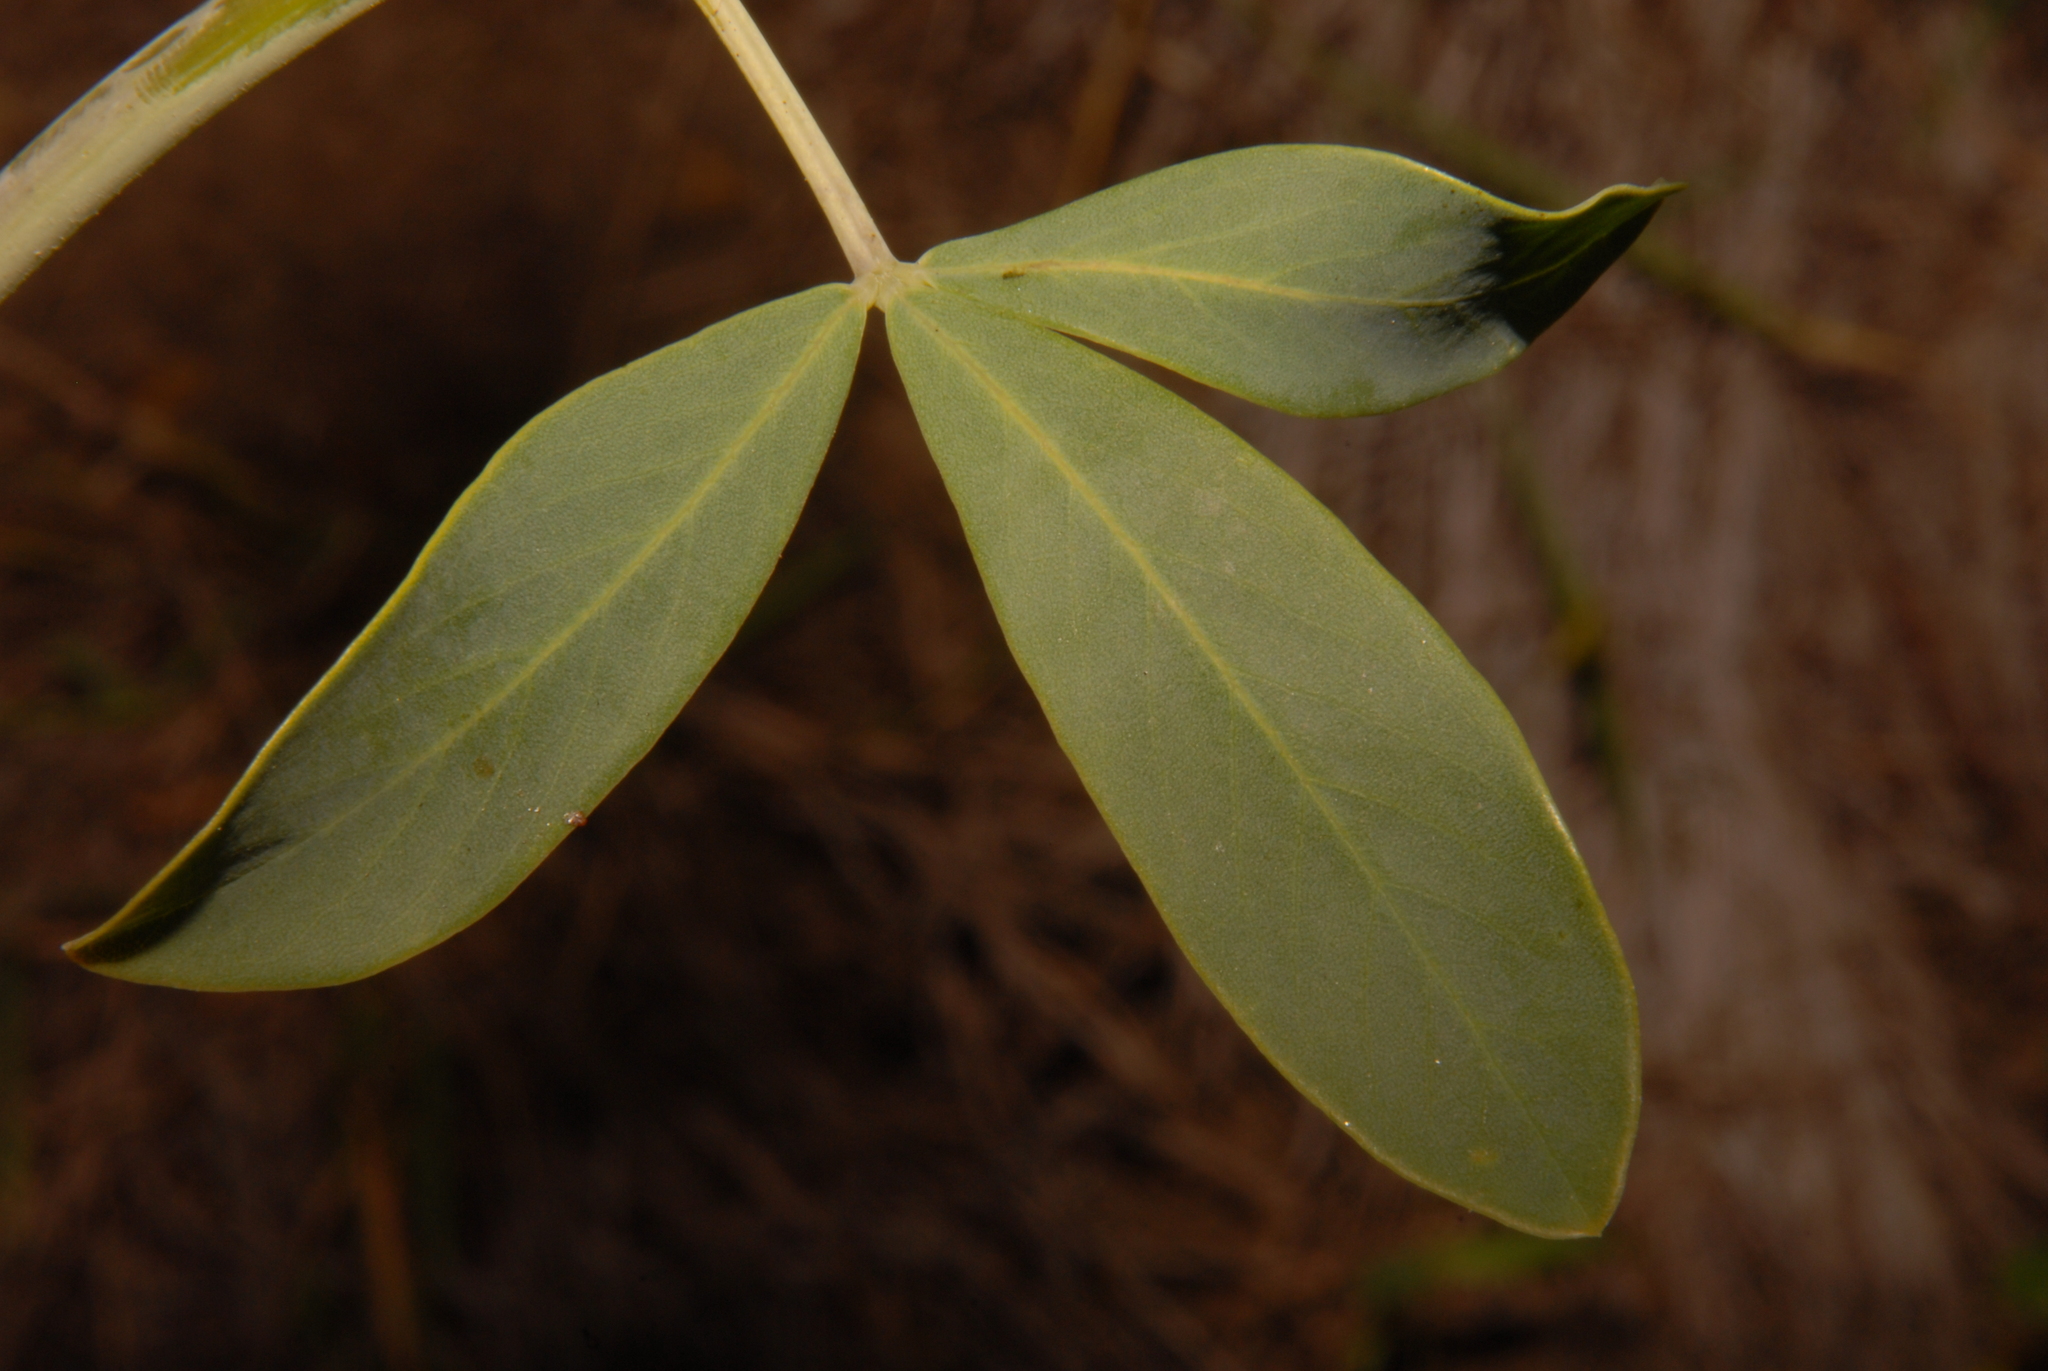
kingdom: Plantae
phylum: Tracheophyta
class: Magnoliopsida
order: Fabales
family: Fabaceae
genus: Baptisia
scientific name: Baptisia alba
